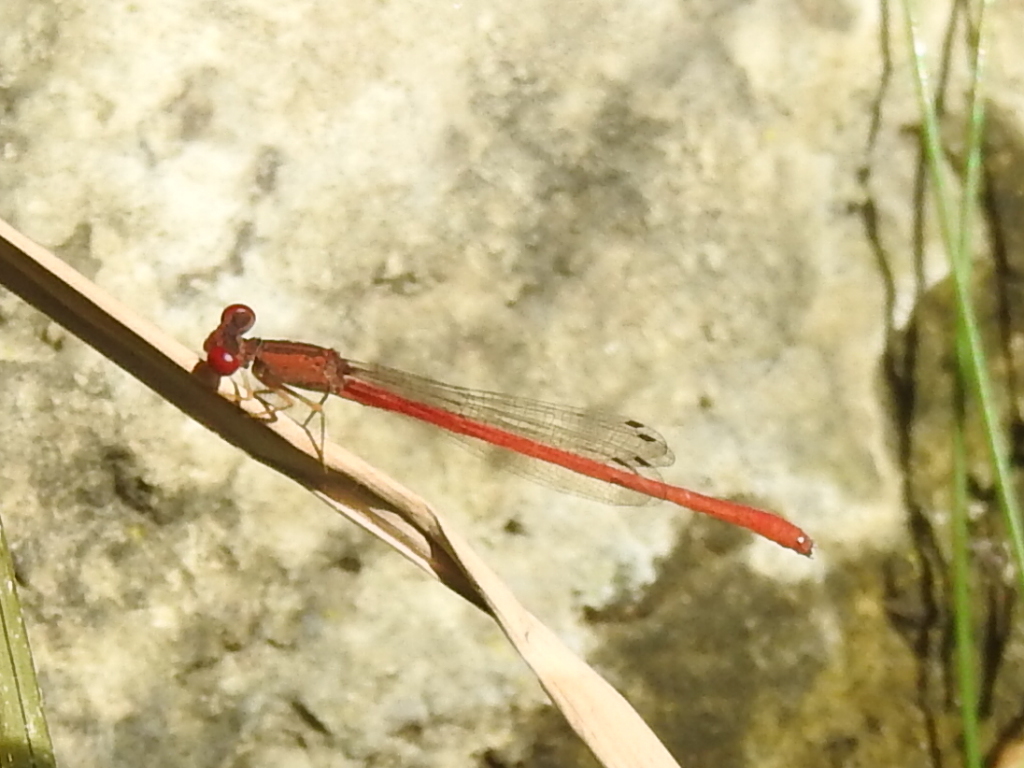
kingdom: Animalia
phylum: Arthropoda
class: Insecta
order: Odonata
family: Coenagrionidae
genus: Telebasis
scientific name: Telebasis salva
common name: Desert firetail
